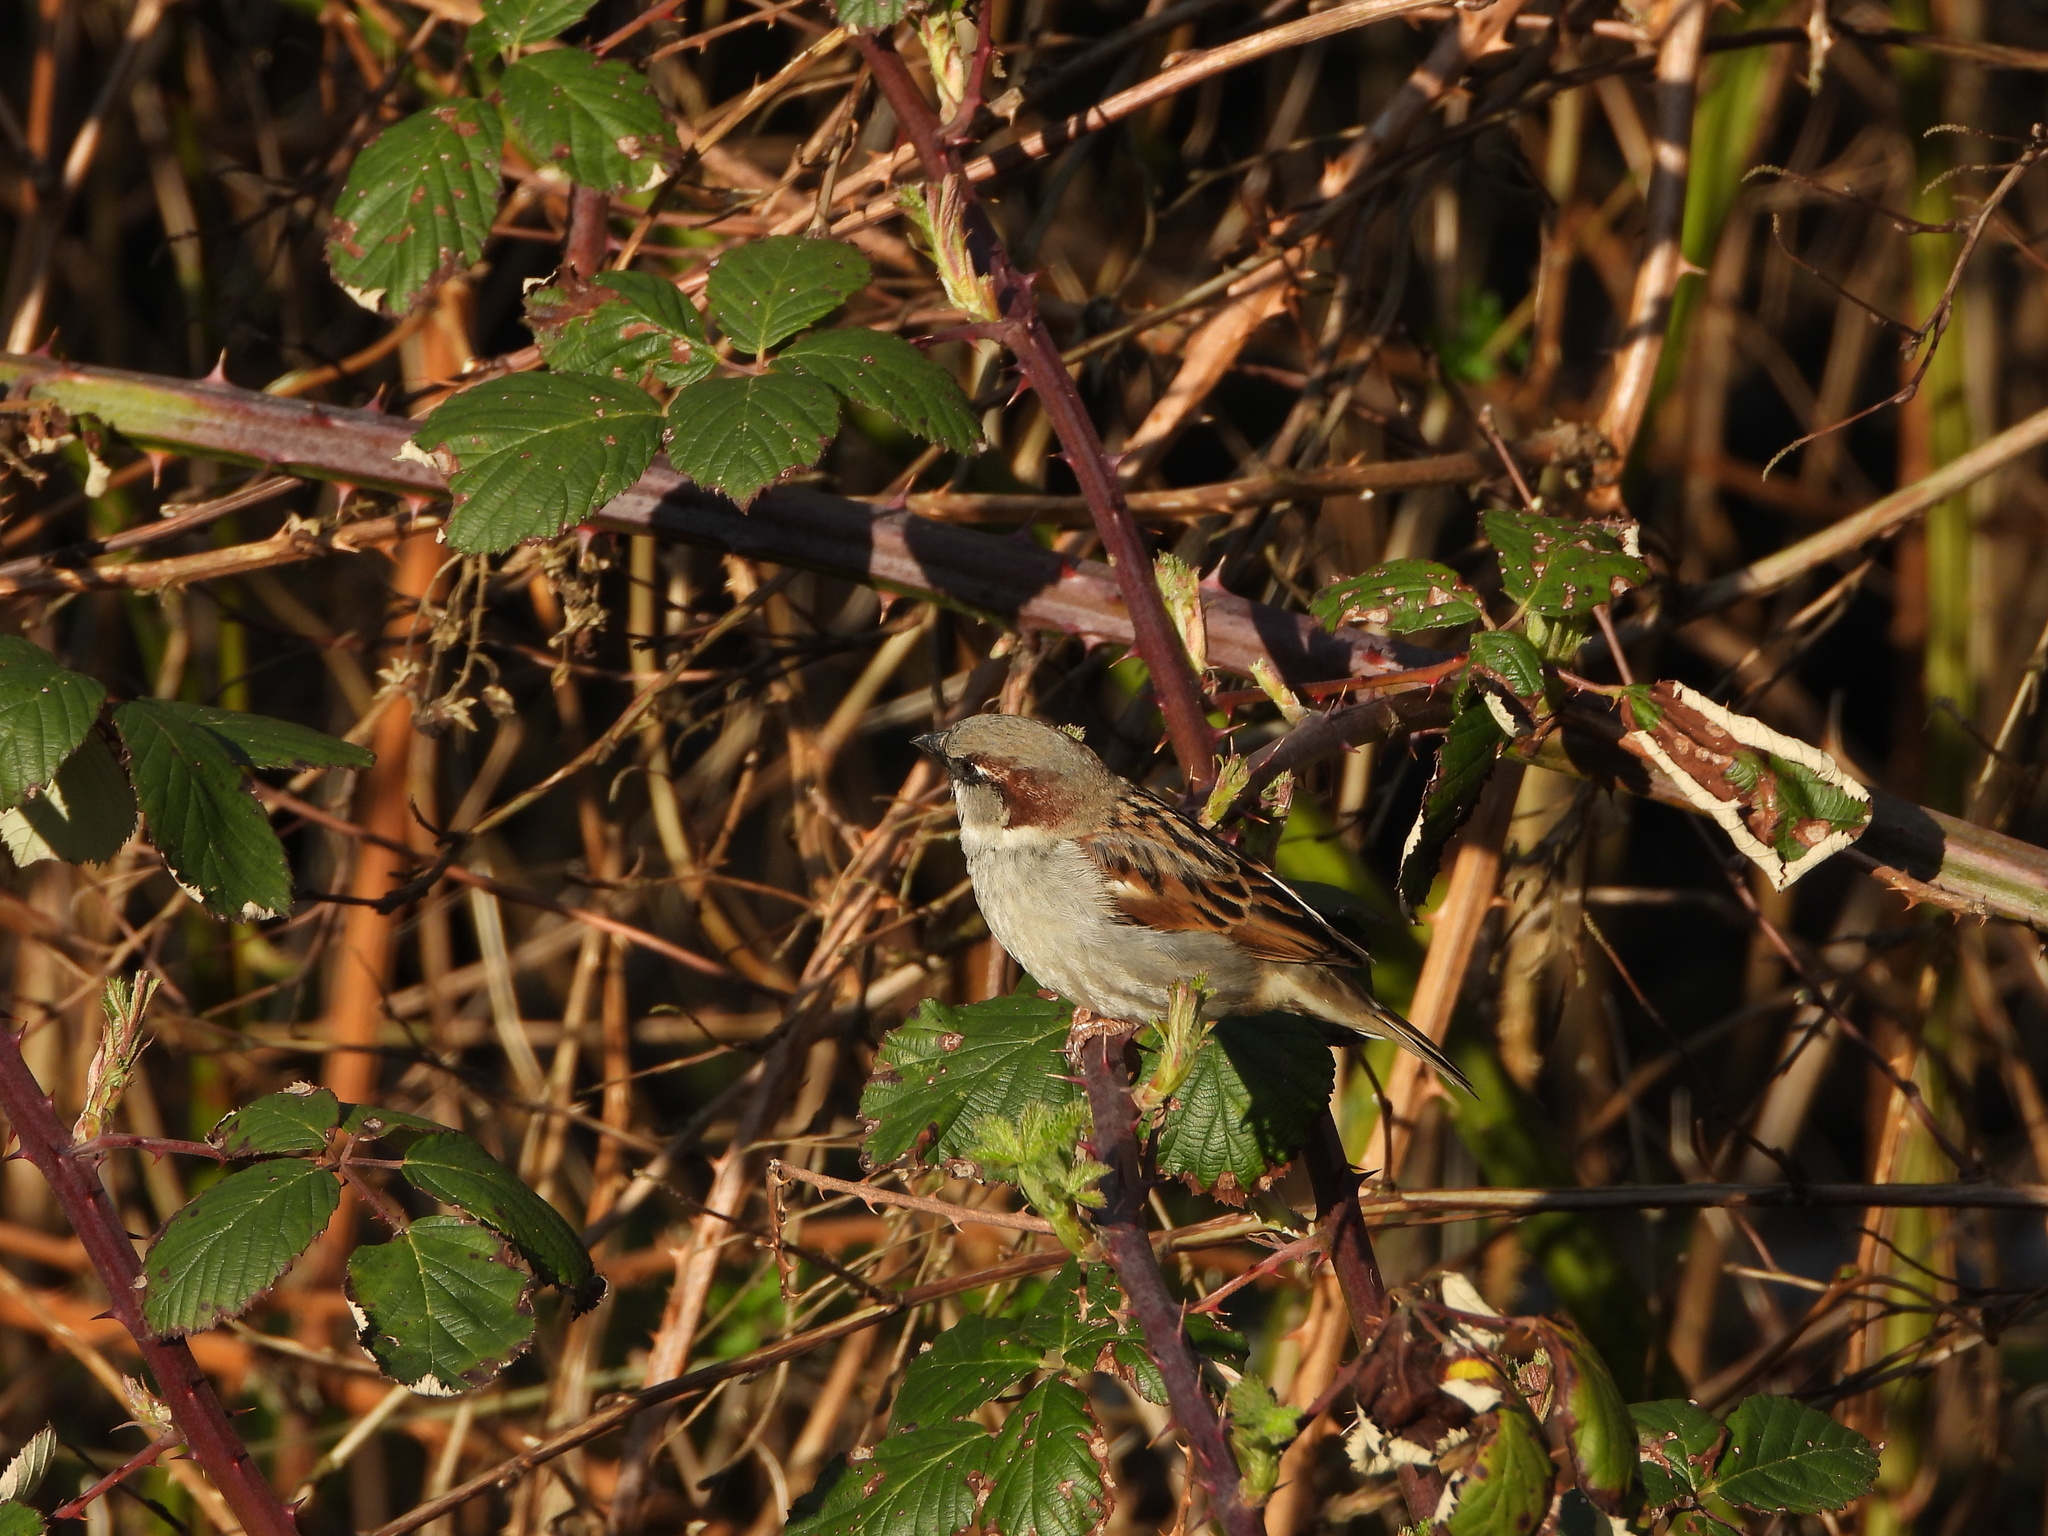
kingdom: Animalia
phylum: Chordata
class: Aves
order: Passeriformes
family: Passeridae
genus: Passer
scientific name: Passer domesticus
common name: House sparrow
